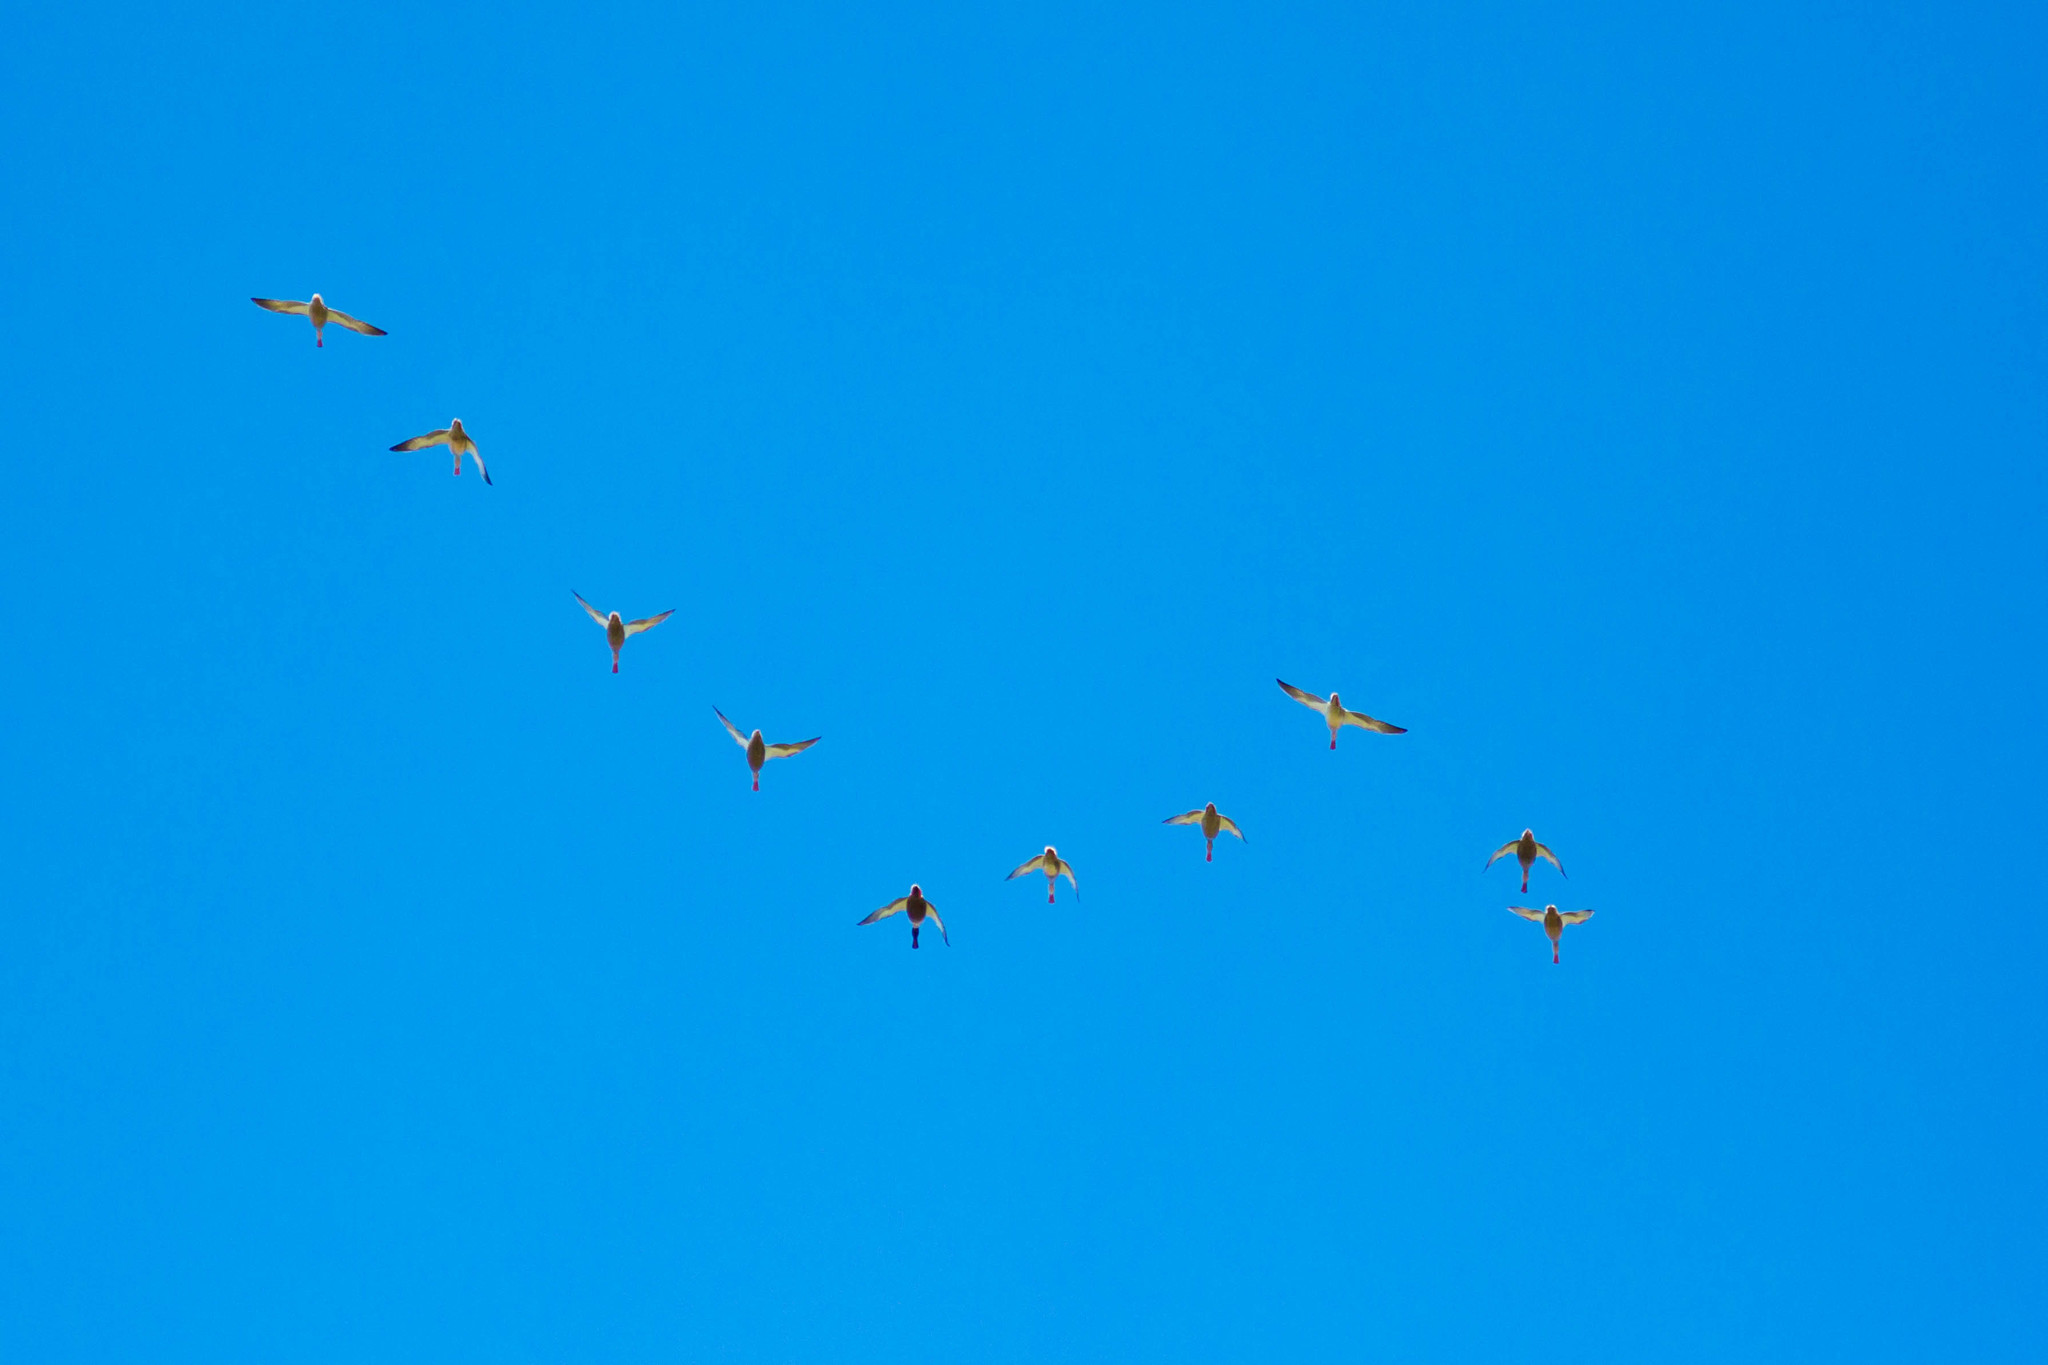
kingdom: Animalia
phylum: Chordata
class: Aves
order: Anseriformes
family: Anatidae
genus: Spatula
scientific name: Spatula clypeata
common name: Northern shoveler
